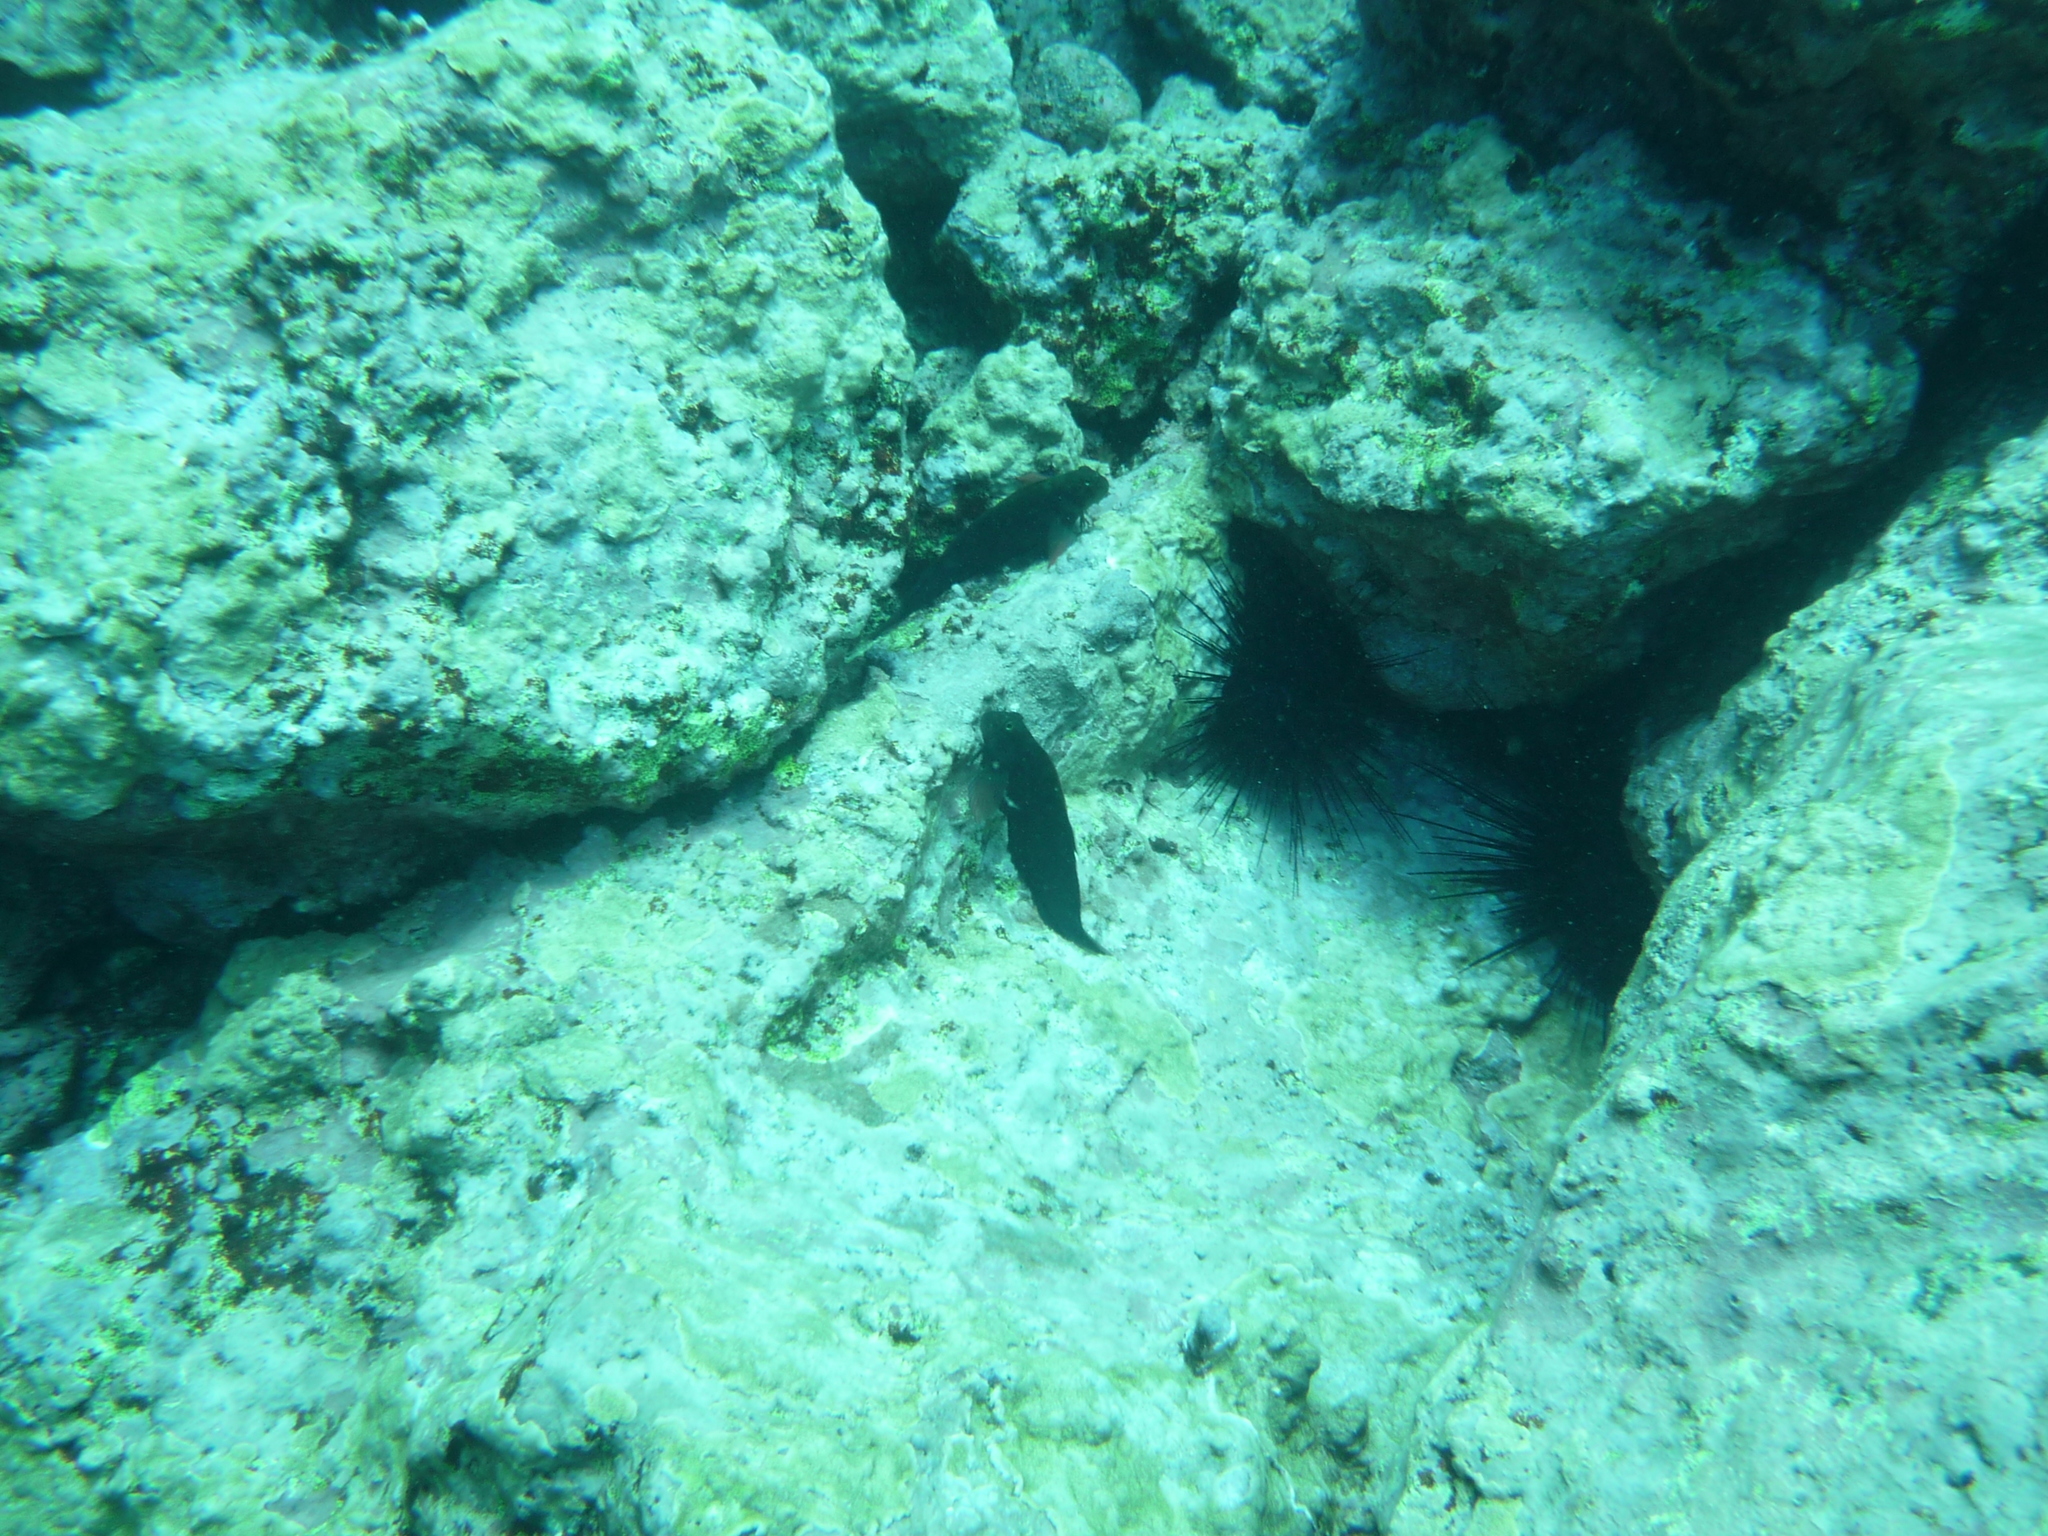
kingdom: Animalia
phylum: Chordata
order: Perciformes
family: Blenniidae
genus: Ophioblennius
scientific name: Ophioblennius atlanticus
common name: Redlip blenny
